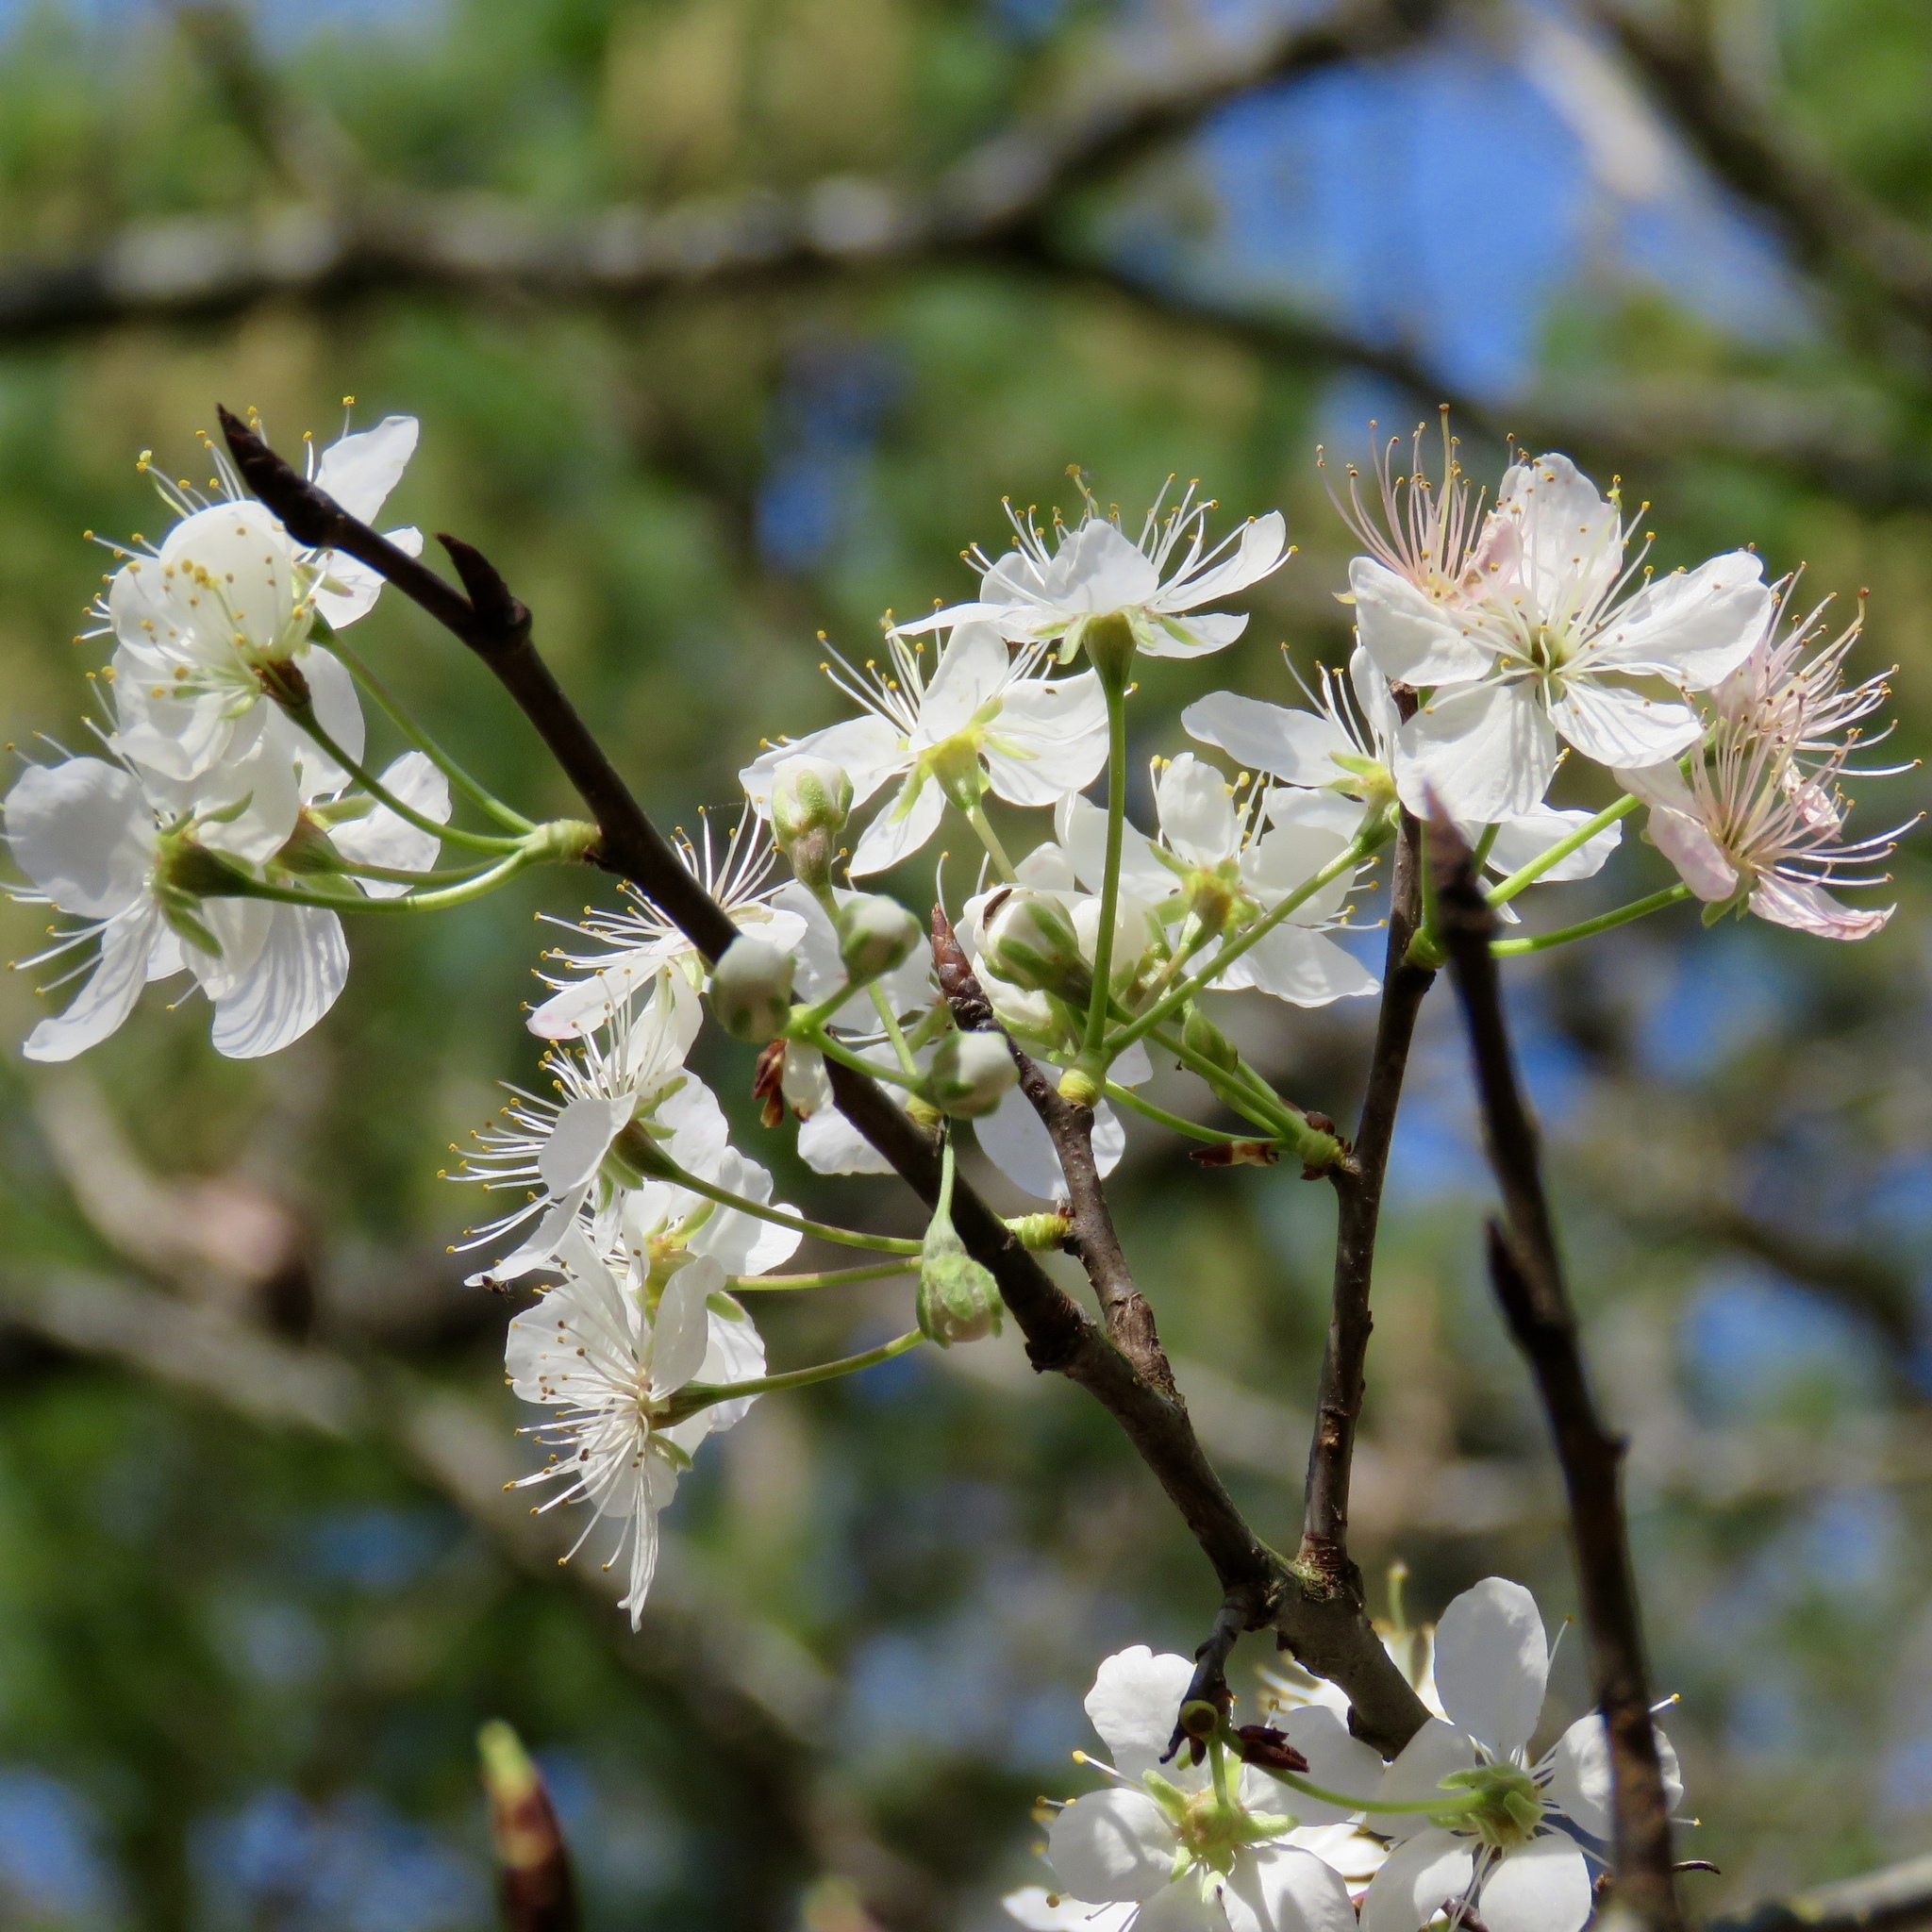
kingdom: Plantae
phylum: Tracheophyta
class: Magnoliopsida
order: Rosales
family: Rosaceae
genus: Prunus
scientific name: Prunus mexicana
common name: Mexican plum
